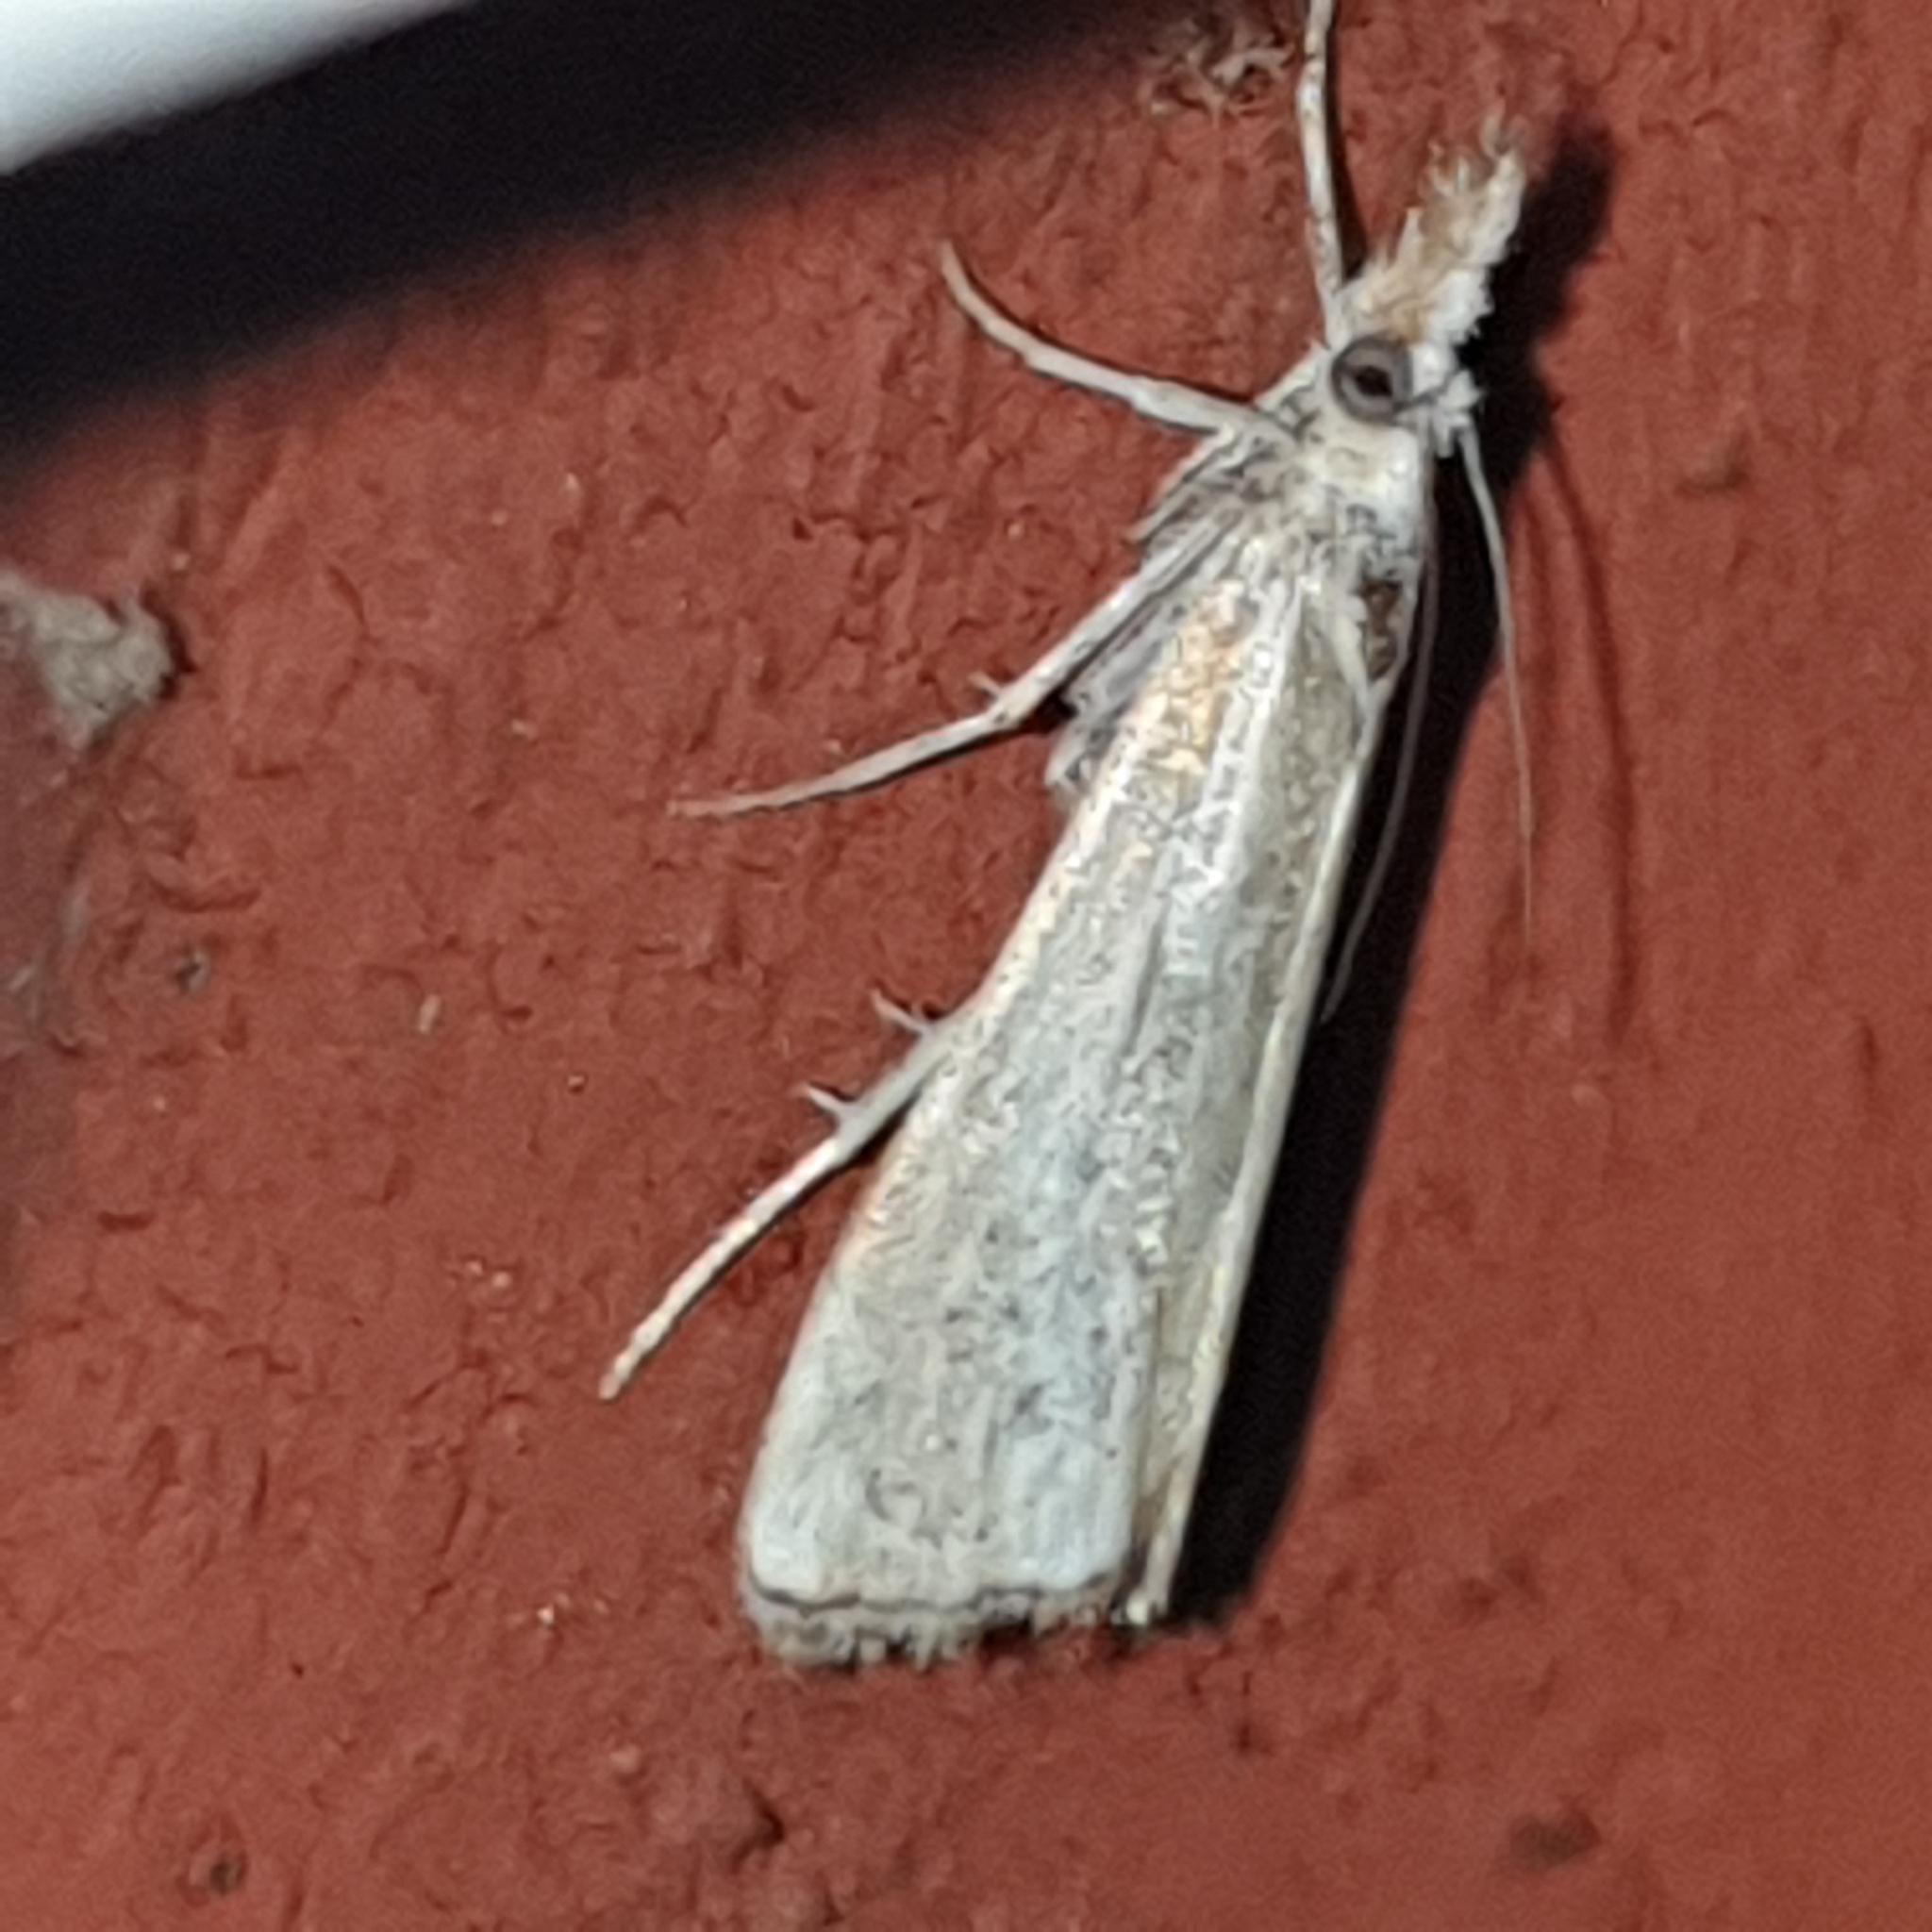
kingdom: Animalia
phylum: Arthropoda
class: Insecta
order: Lepidoptera
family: Crambidae
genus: Agriphila
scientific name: Agriphila straminella
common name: Straw grass-veneer
